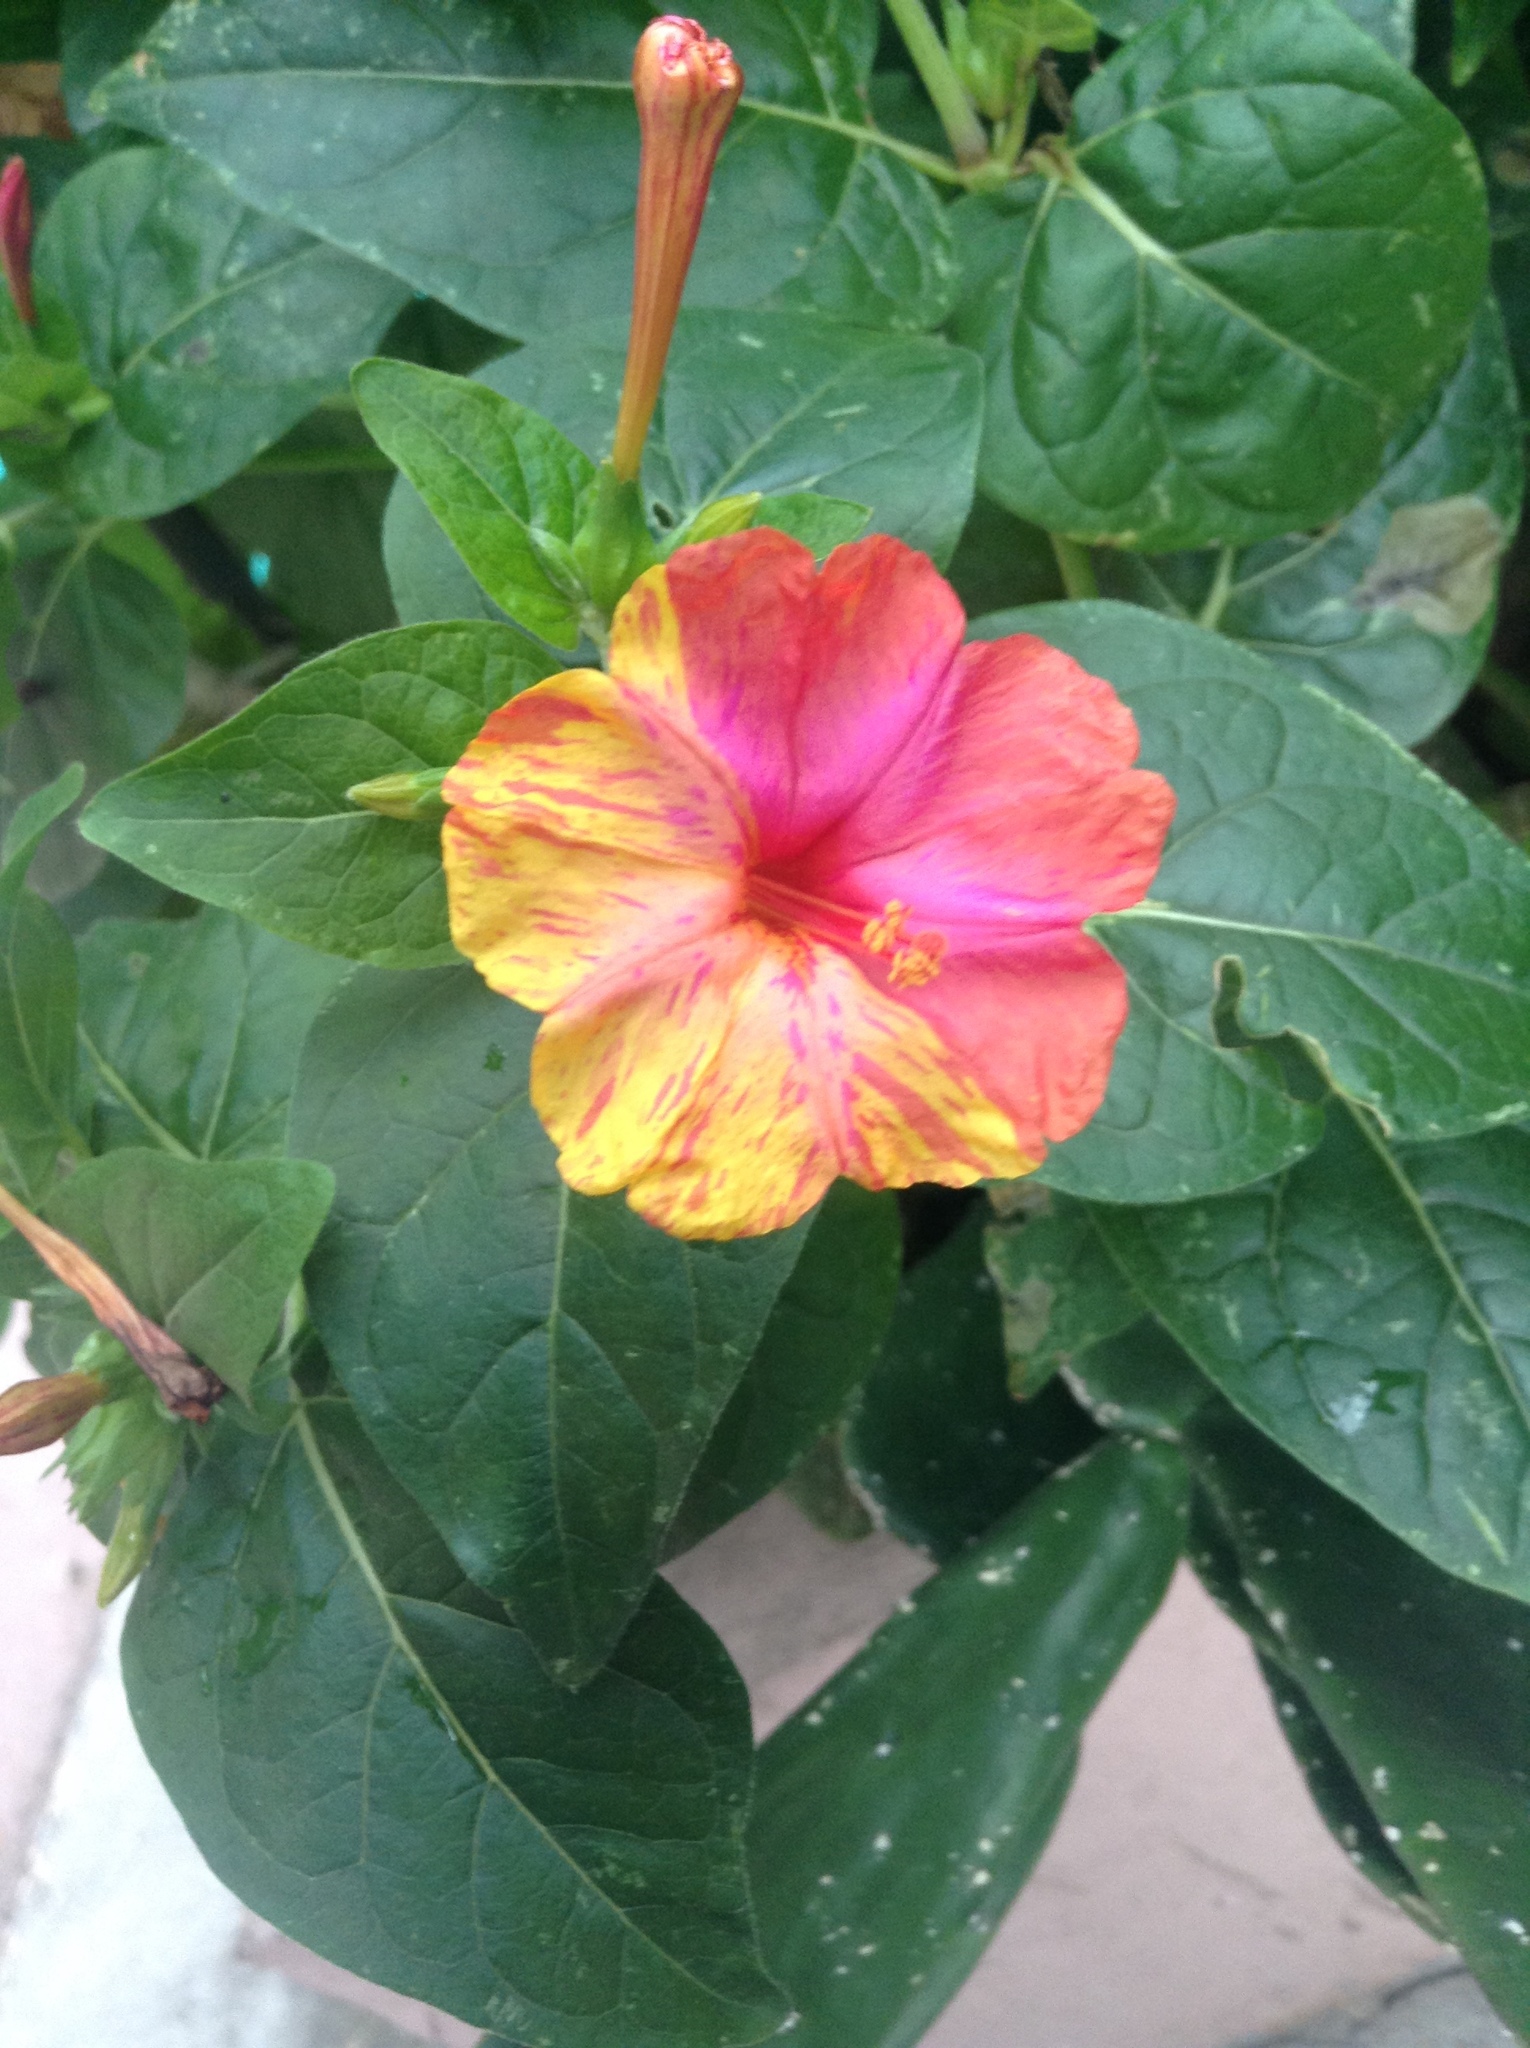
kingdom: Plantae
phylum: Tracheophyta
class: Magnoliopsida
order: Caryophyllales
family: Nyctaginaceae
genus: Mirabilis
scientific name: Mirabilis jalapa
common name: Marvel-of-peru
